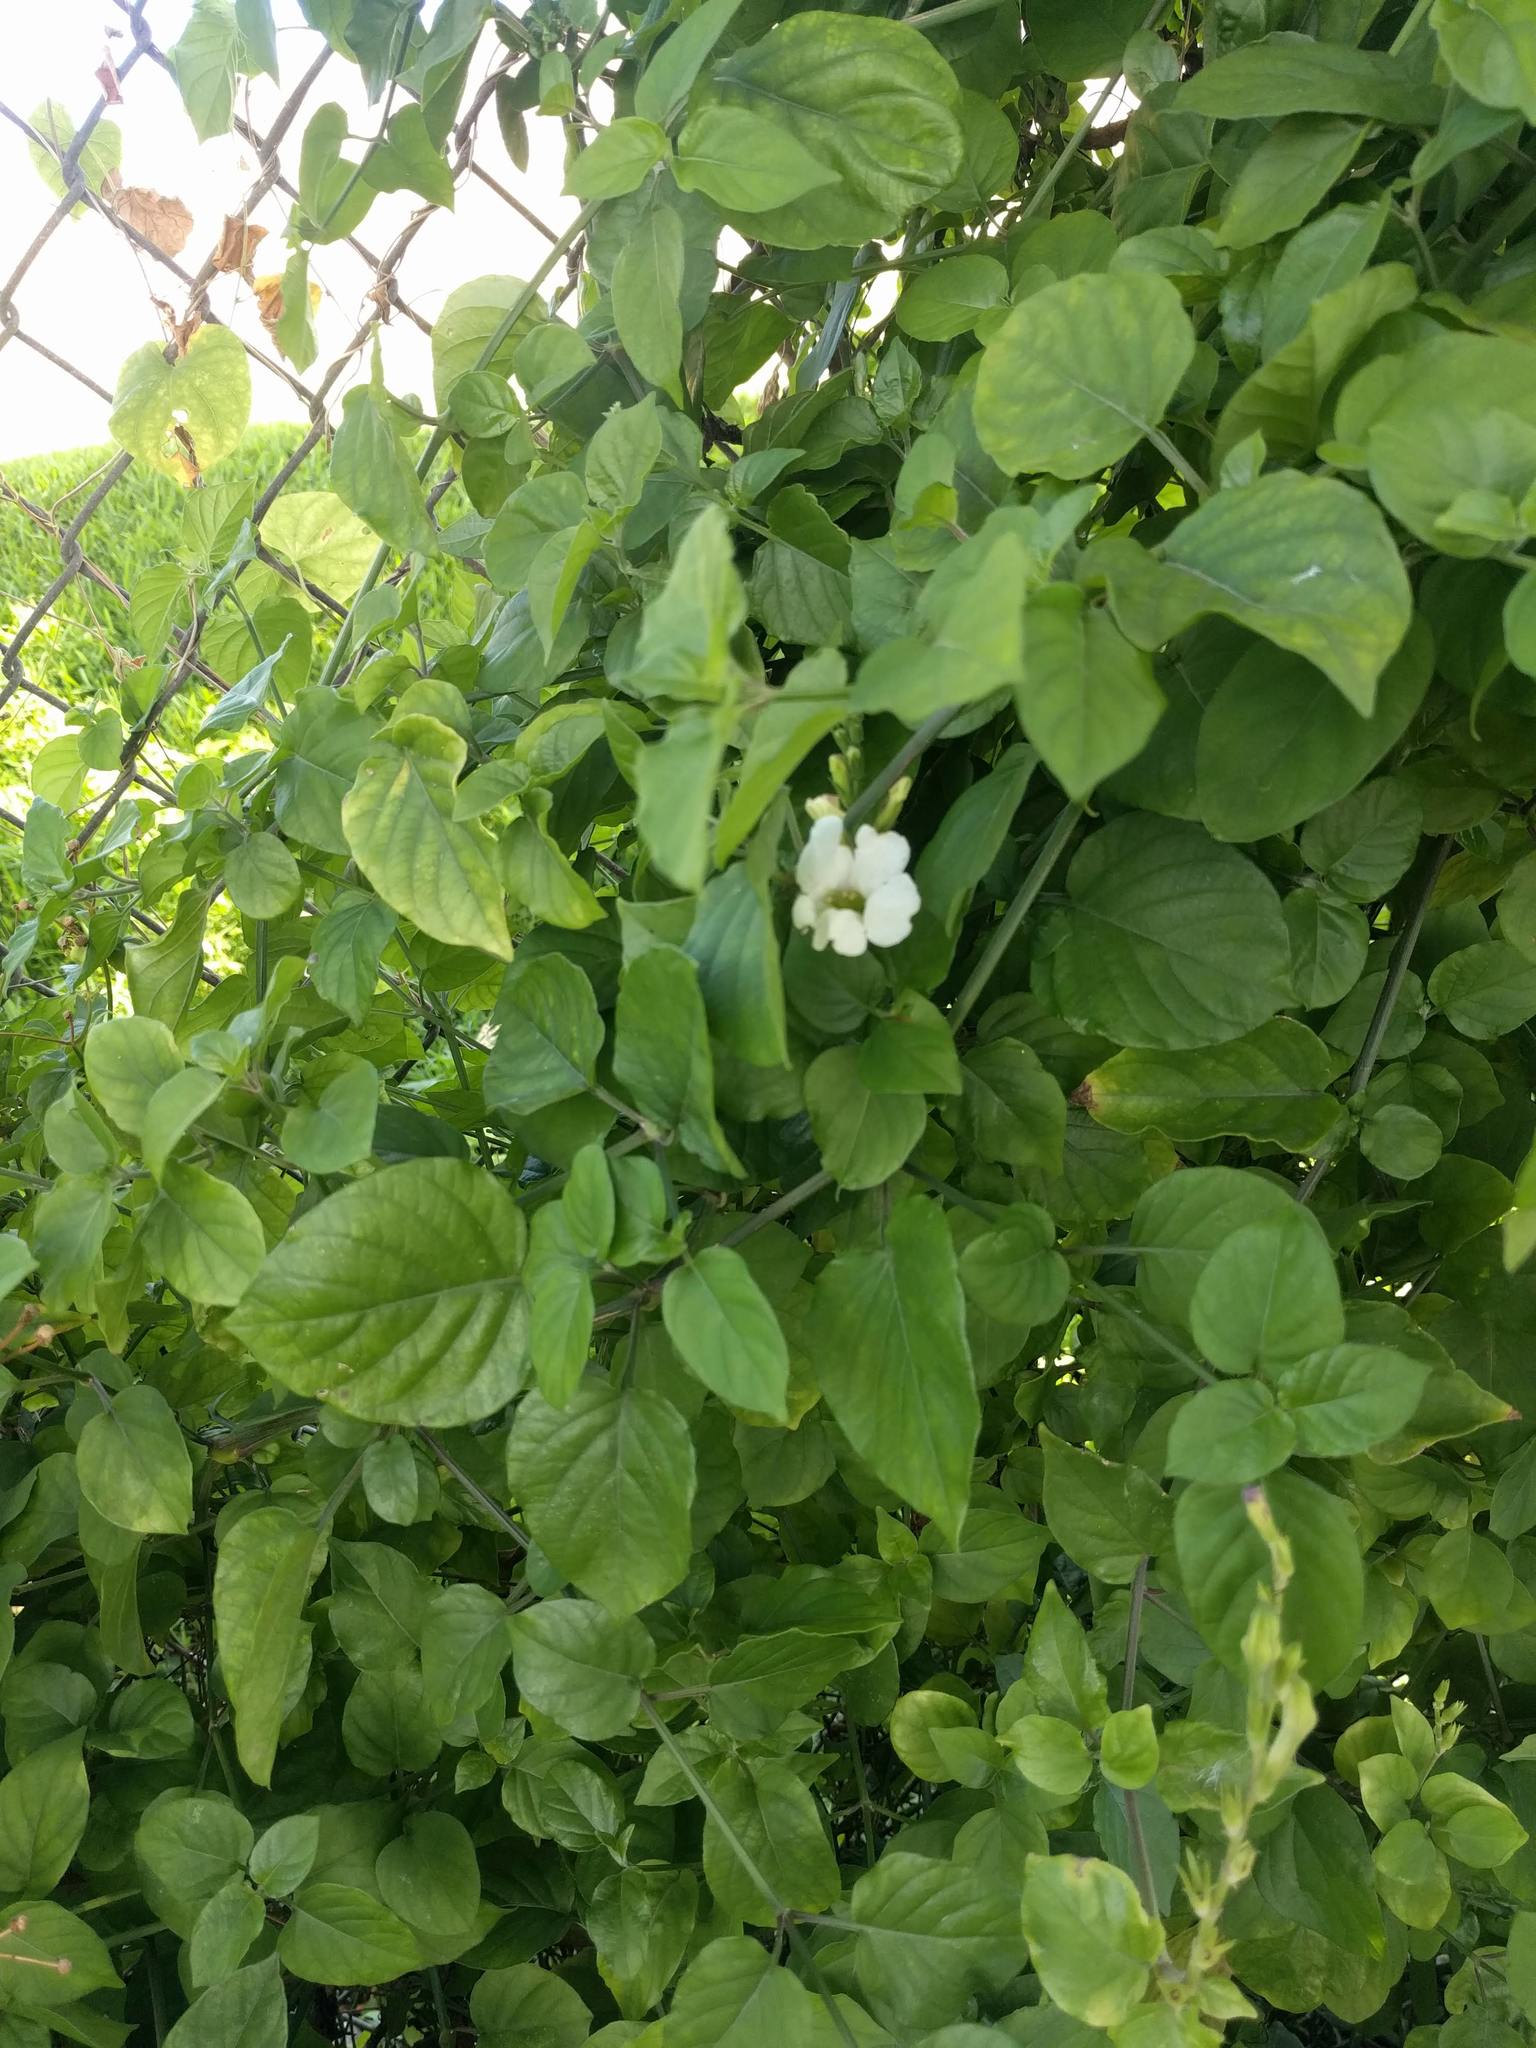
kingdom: Plantae
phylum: Tracheophyta
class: Magnoliopsida
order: Lamiales
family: Acanthaceae
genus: Asystasia
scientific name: Asystasia gangetica
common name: Chinese violet
